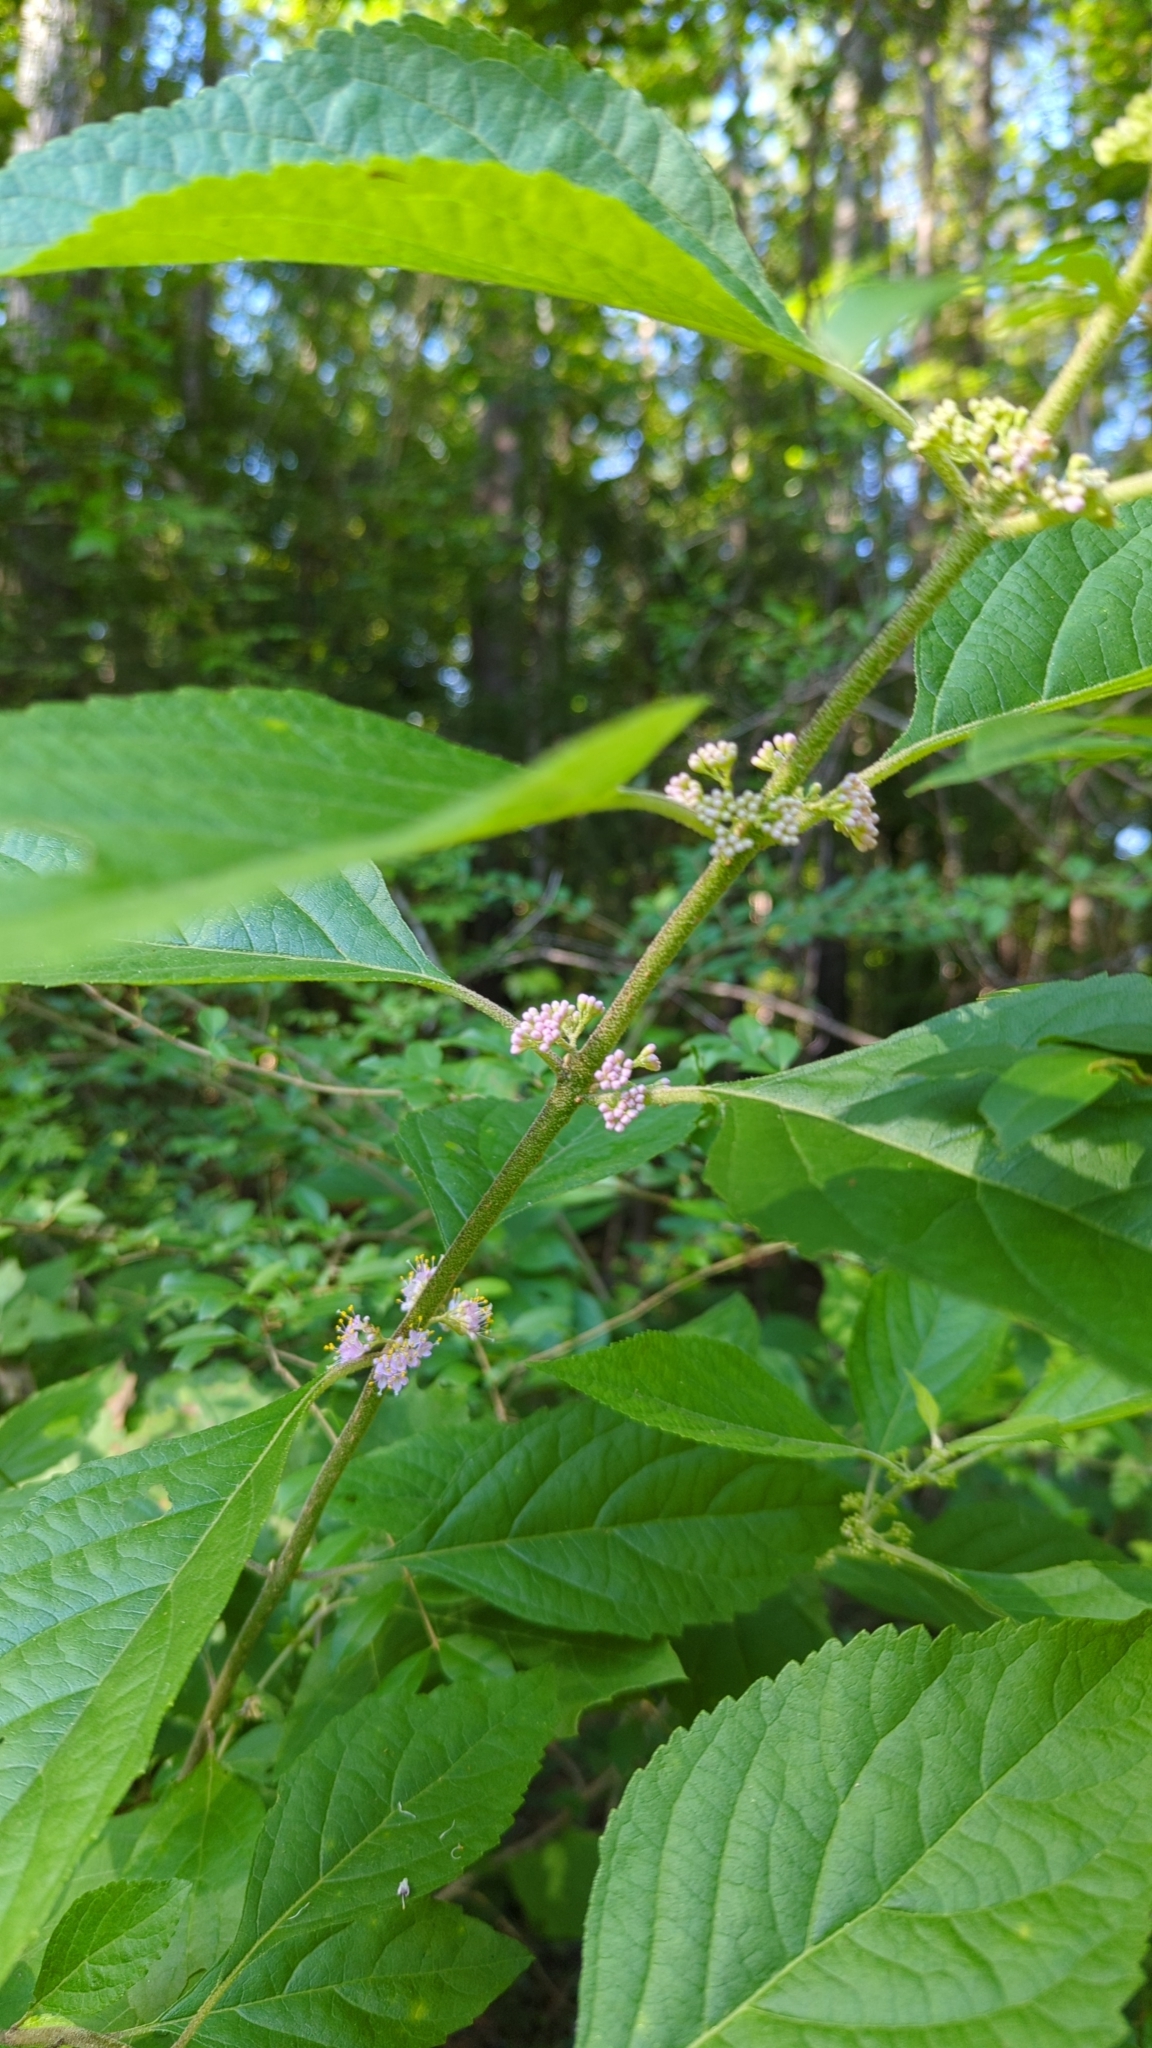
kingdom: Plantae
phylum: Tracheophyta
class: Magnoliopsida
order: Lamiales
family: Lamiaceae
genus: Callicarpa
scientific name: Callicarpa americana
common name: American beautyberry
